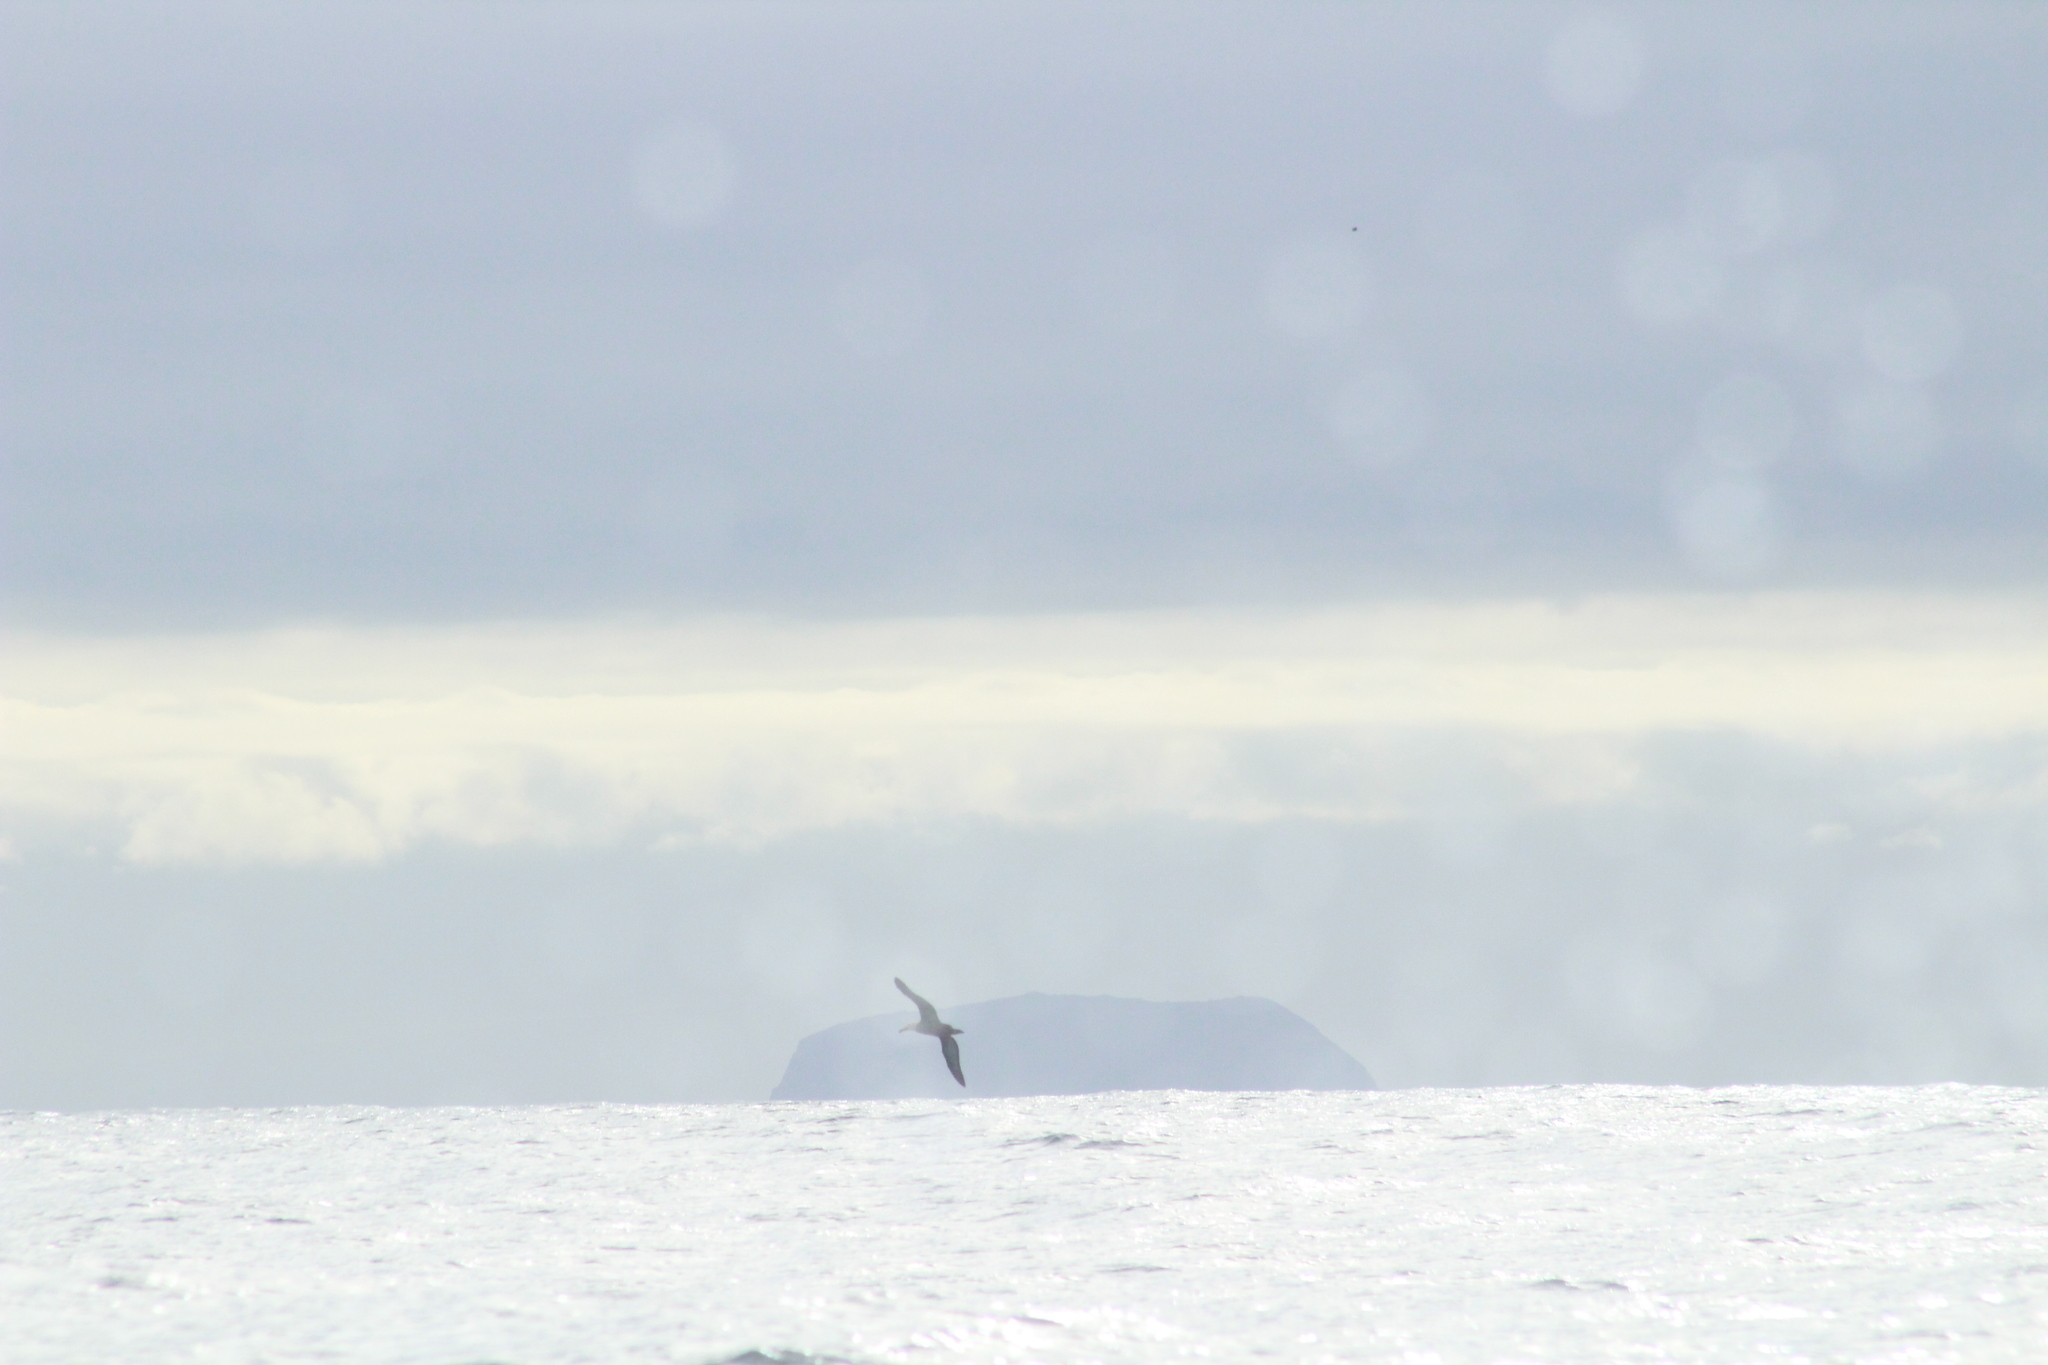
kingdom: Animalia
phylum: Chordata
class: Aves
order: Procellariiformes
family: Diomedeidae
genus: Phoebastria
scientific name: Phoebastria irrorata
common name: Waved albatross
